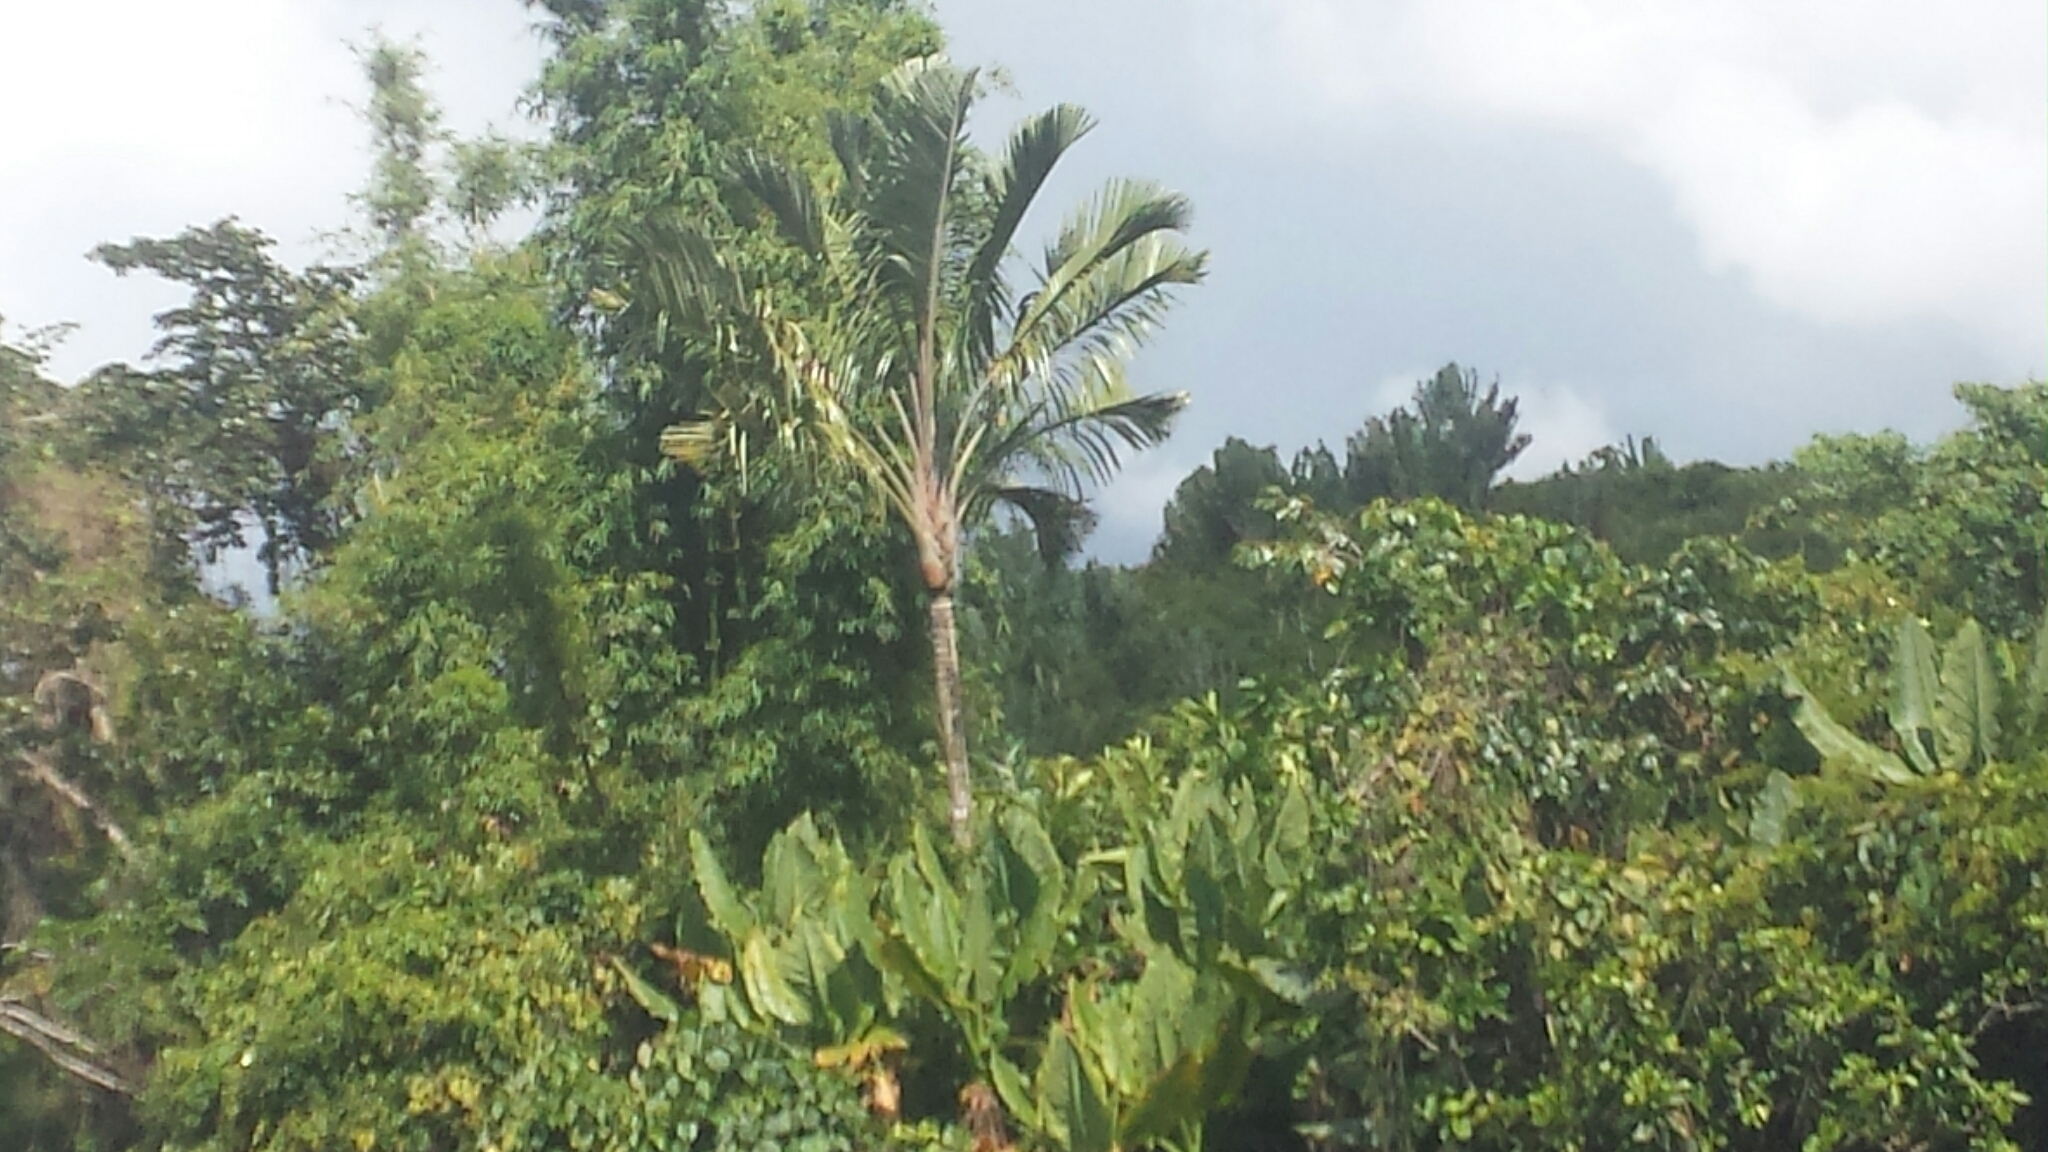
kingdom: Plantae
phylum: Tracheophyta
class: Liliopsida
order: Arecales
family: Arecaceae
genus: Orania
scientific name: Orania trispatha
